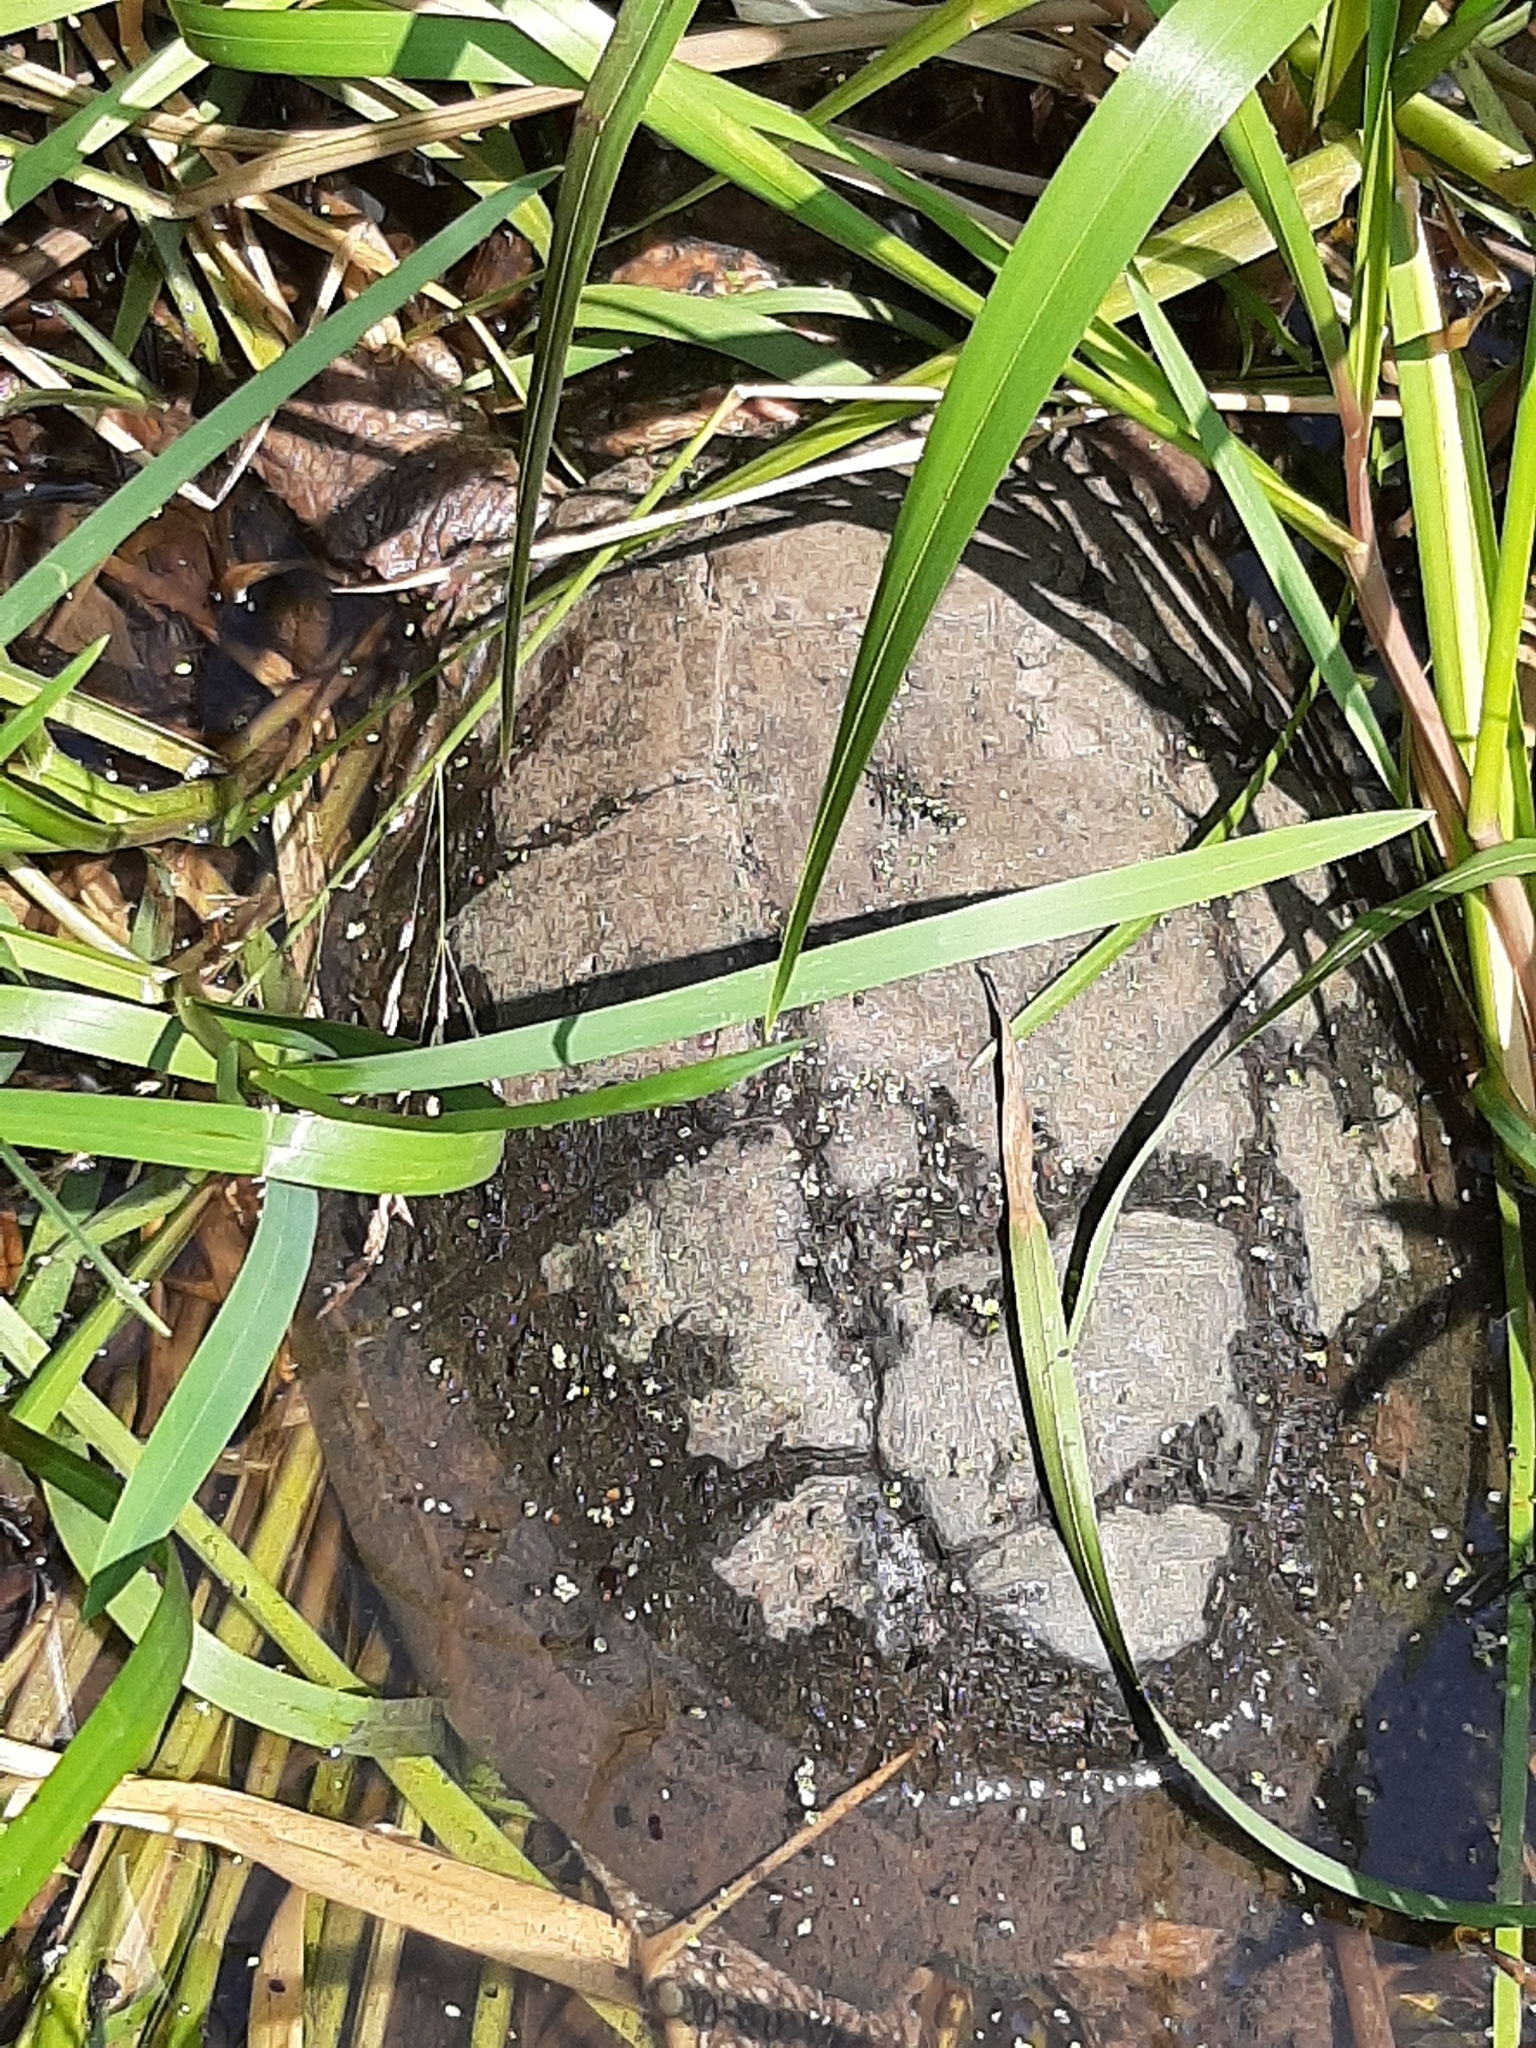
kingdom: Animalia
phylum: Chordata
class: Testudines
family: Chelydridae
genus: Chelydra
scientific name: Chelydra serpentina
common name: Common snapping turtle
